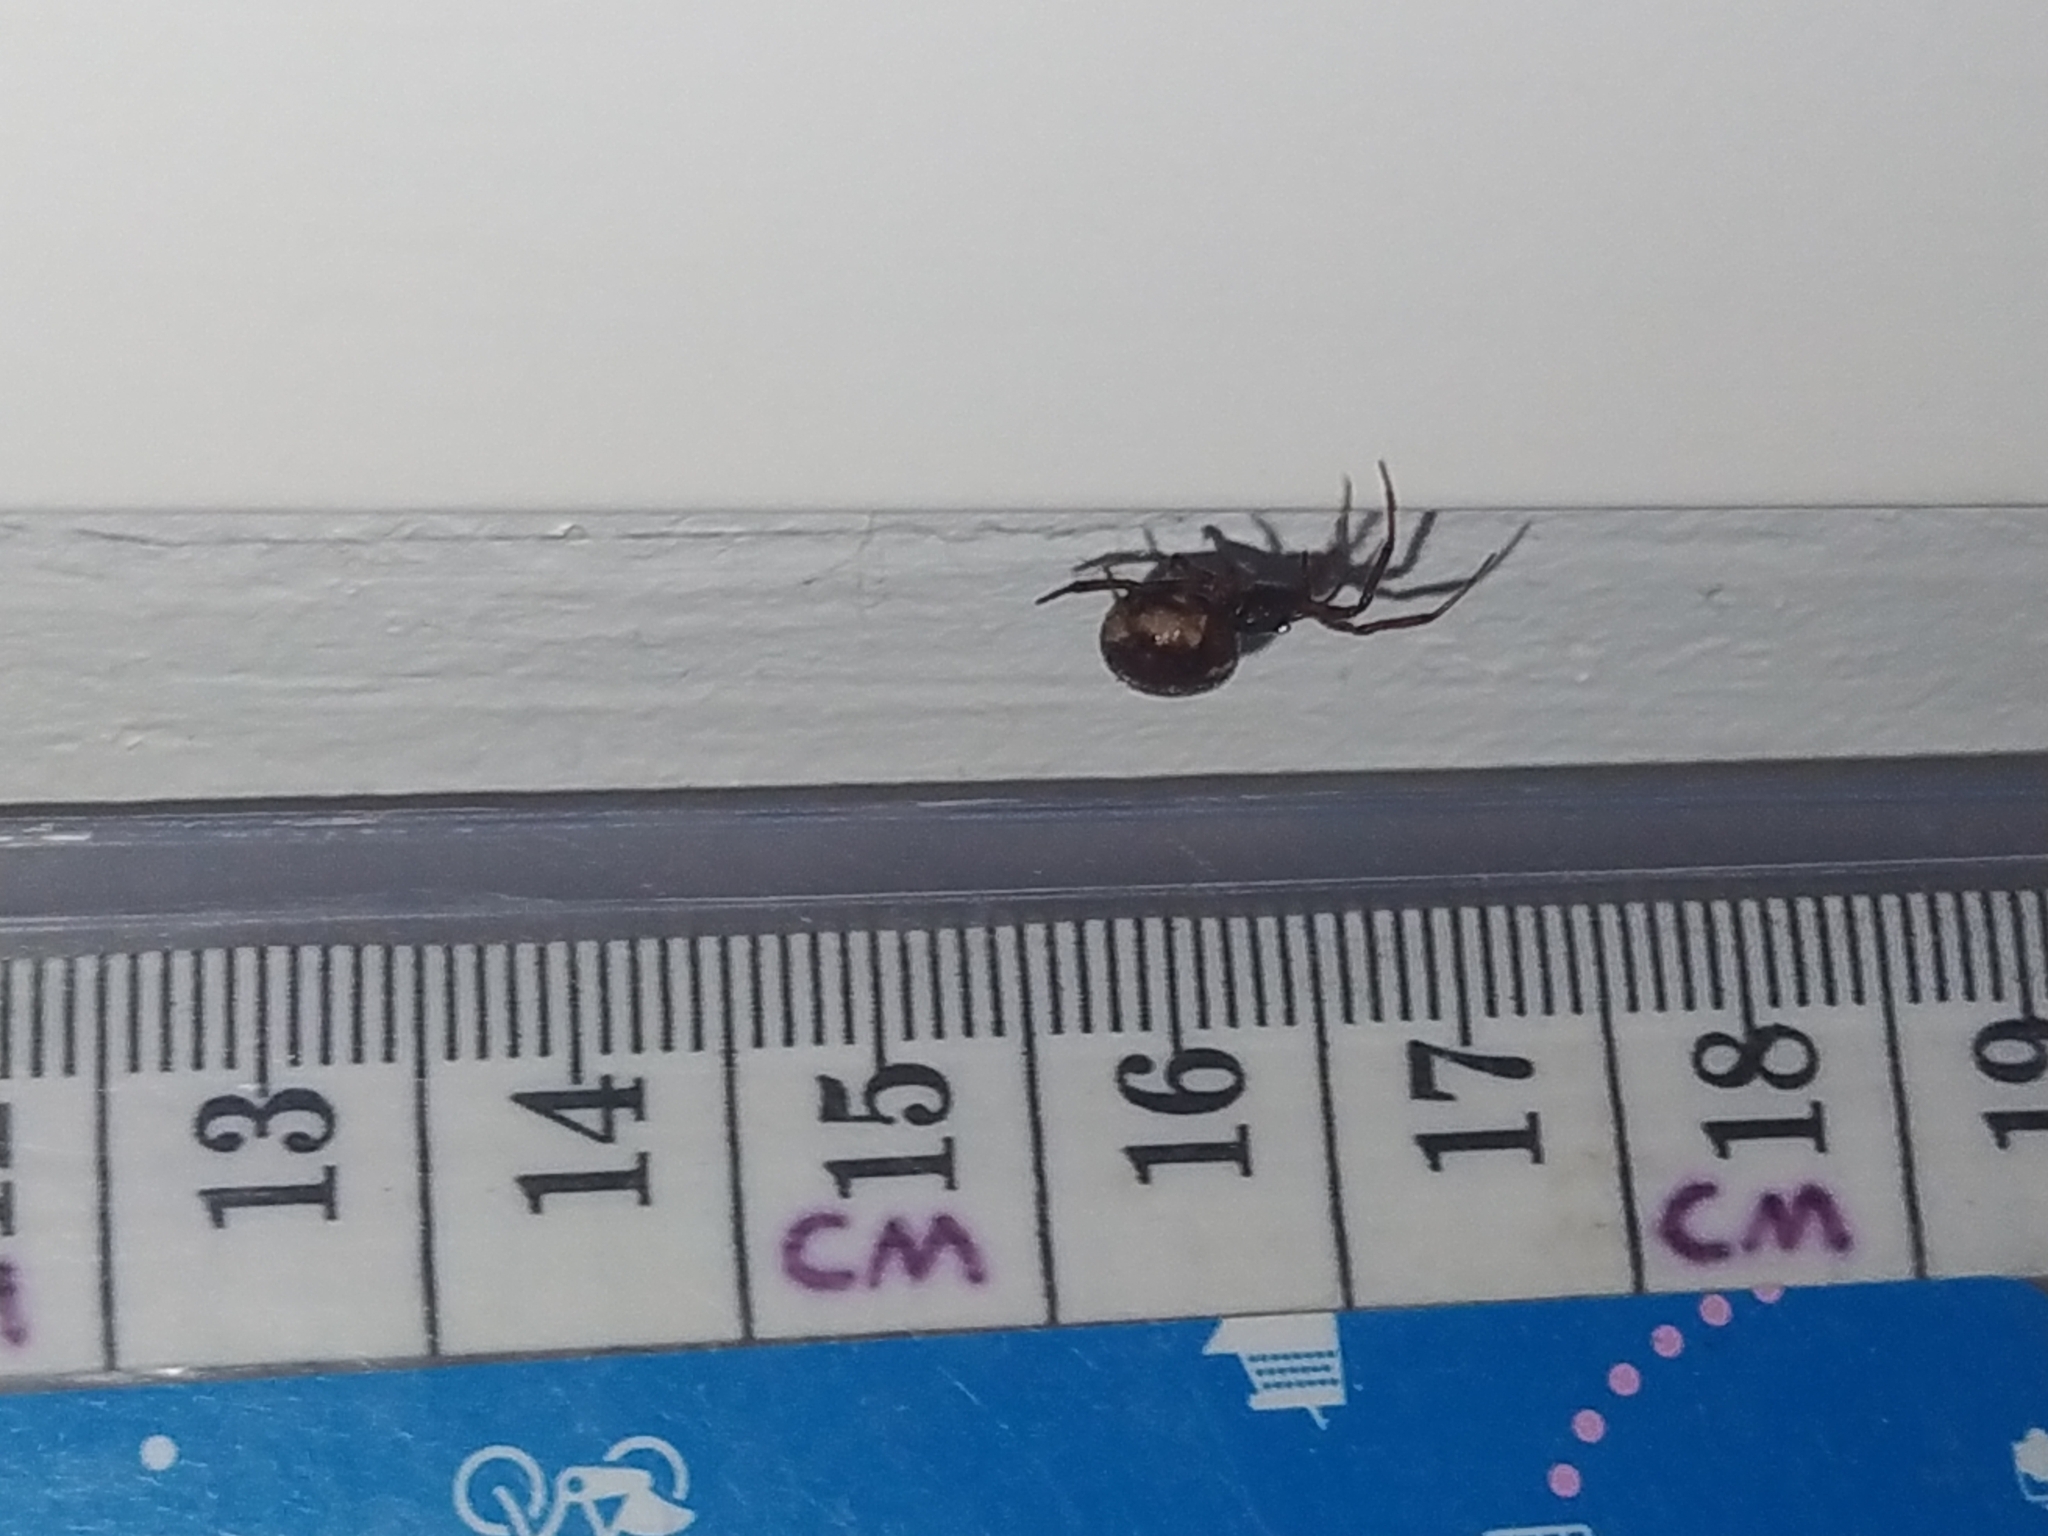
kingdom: Animalia
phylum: Arthropoda
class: Arachnida
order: Araneae
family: Theridiidae
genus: Steatoda
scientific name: Steatoda bipunctata
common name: False widow
